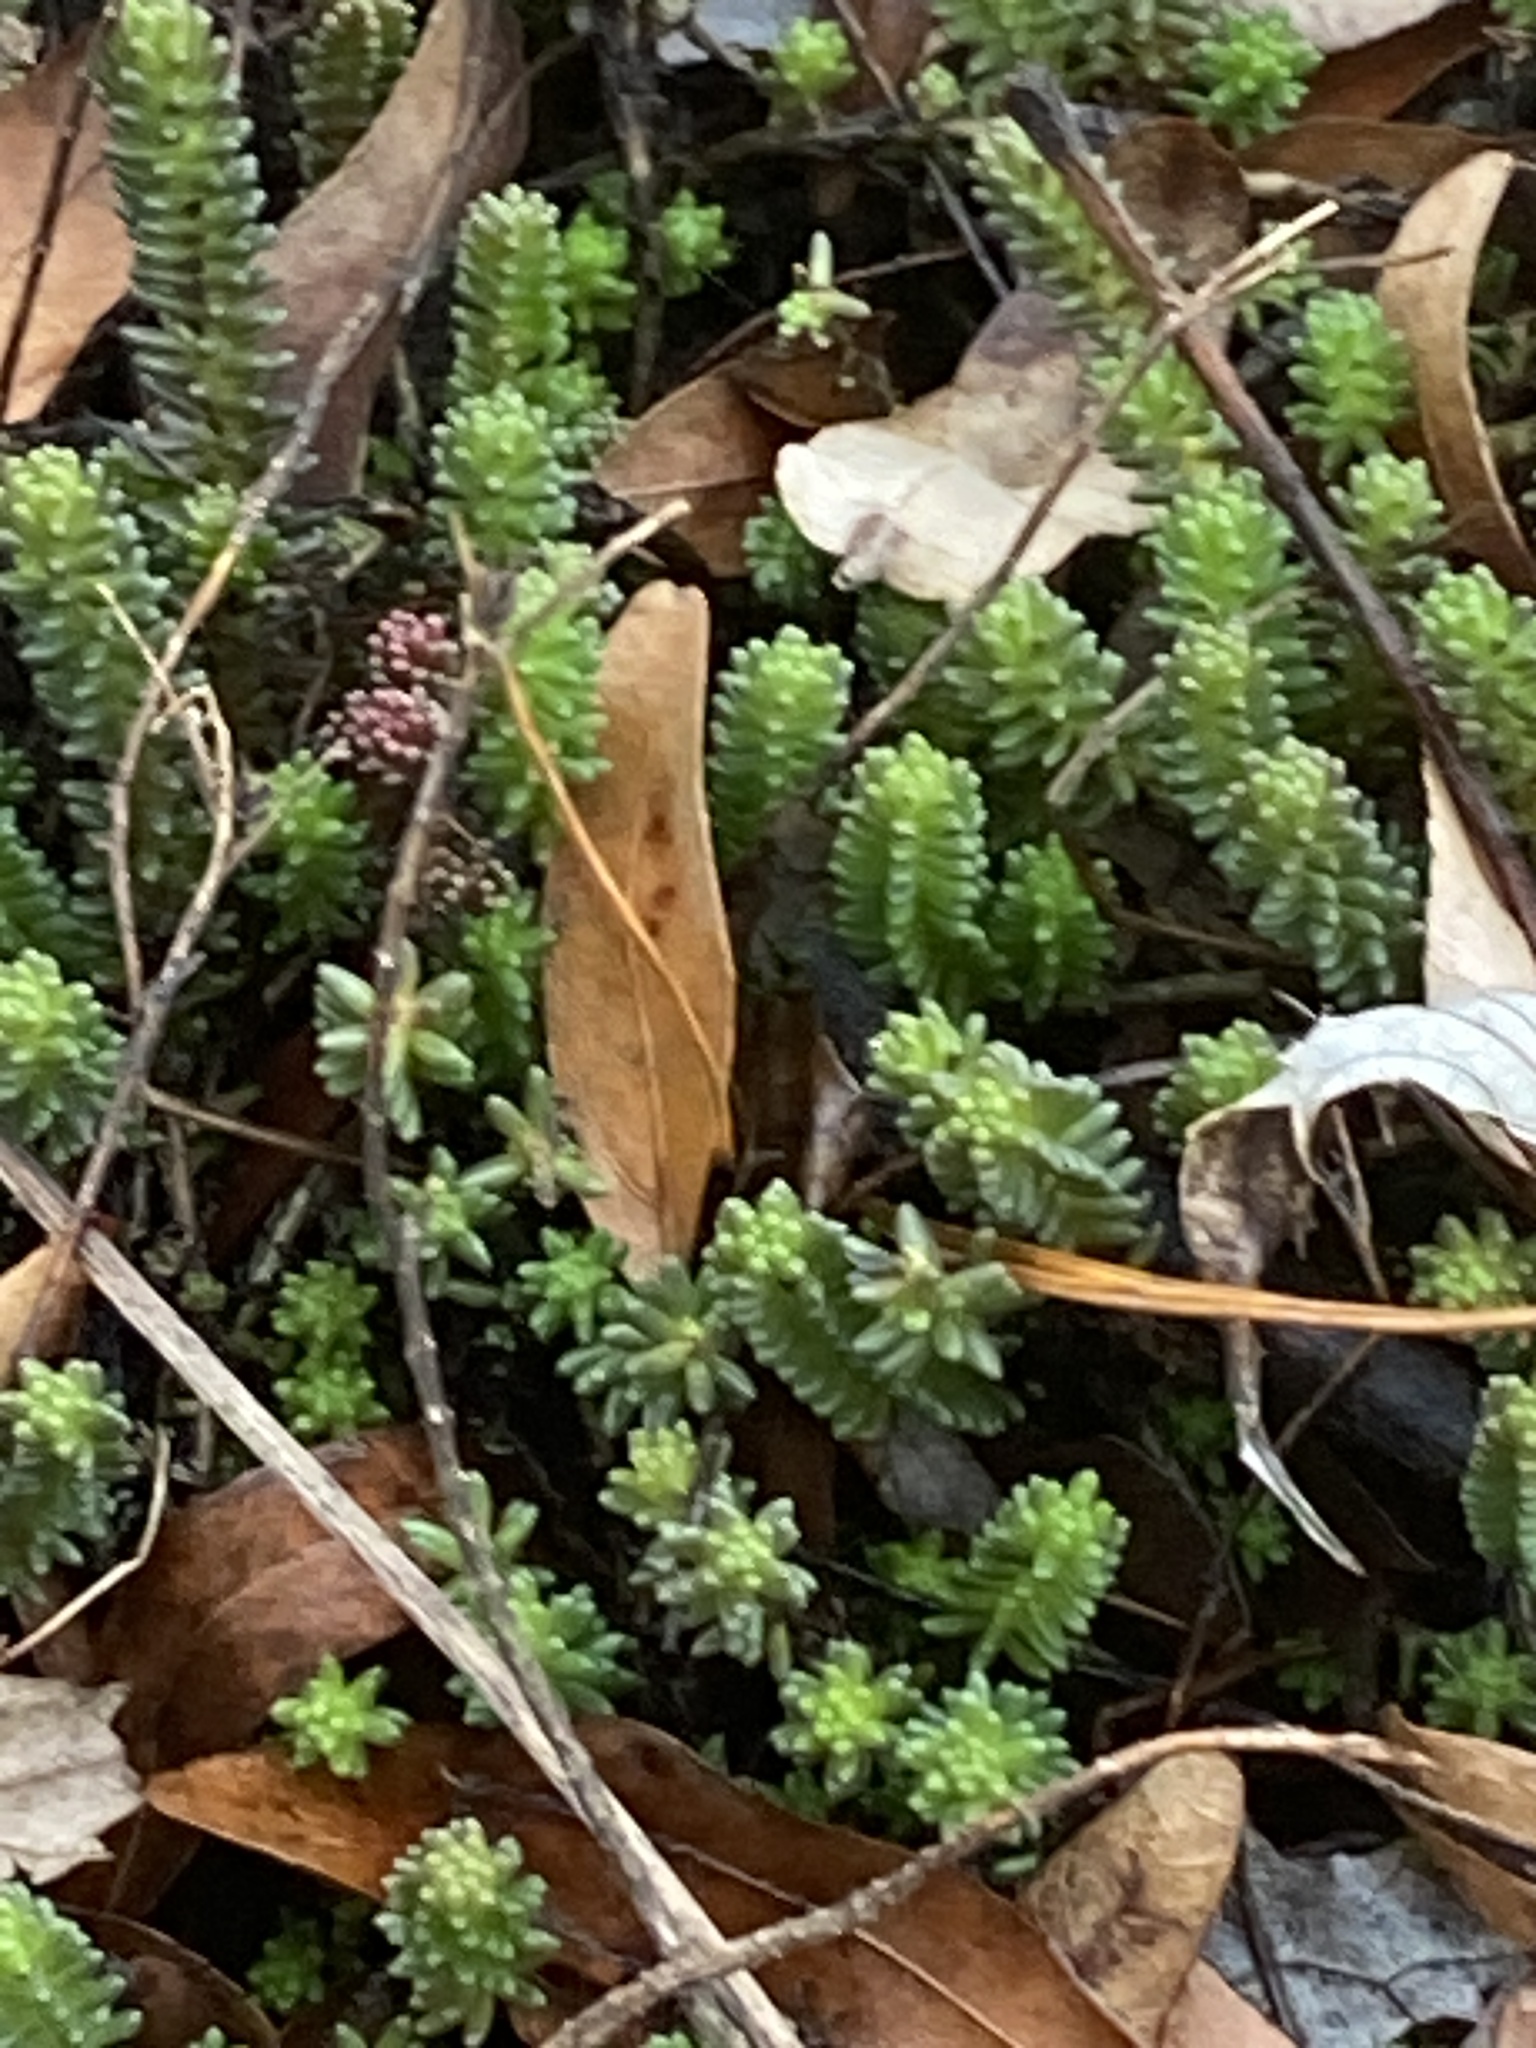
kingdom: Plantae
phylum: Tracheophyta
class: Magnoliopsida
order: Saxifragales
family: Crassulaceae
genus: Sedum
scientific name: Sedum sexangulare
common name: Tasteless stonecrop
